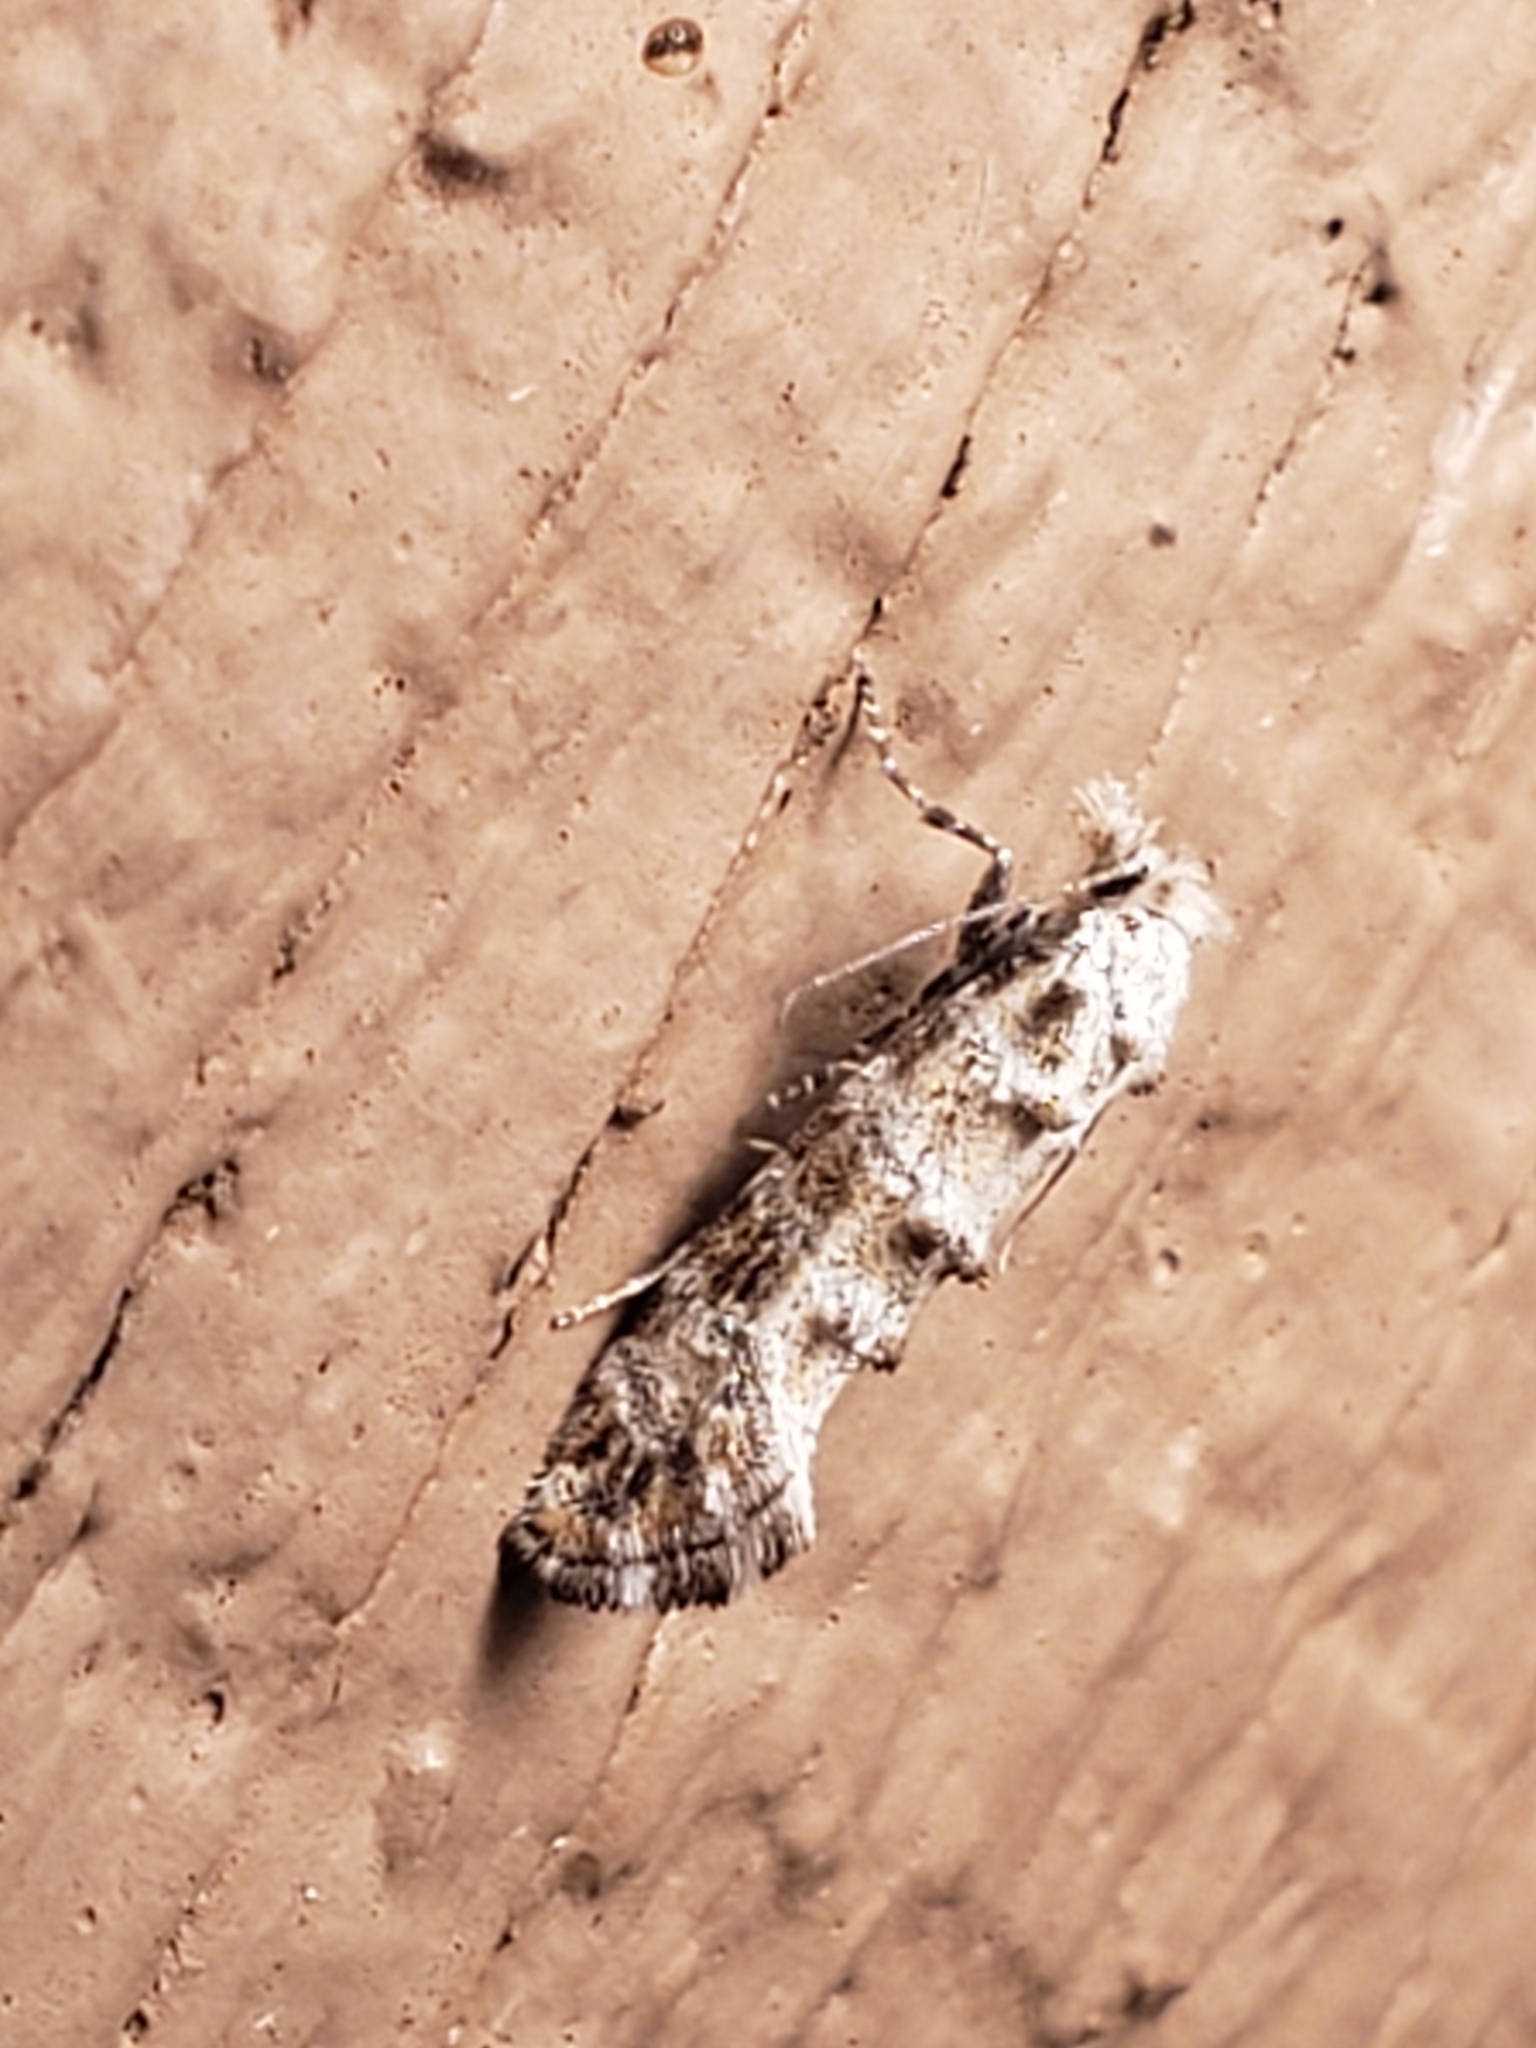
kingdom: Animalia
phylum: Arthropoda
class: Insecta
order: Lepidoptera
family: Tineidae
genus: Xylesthia
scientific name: Xylesthia pruniramiella
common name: Clemens' bark moth
